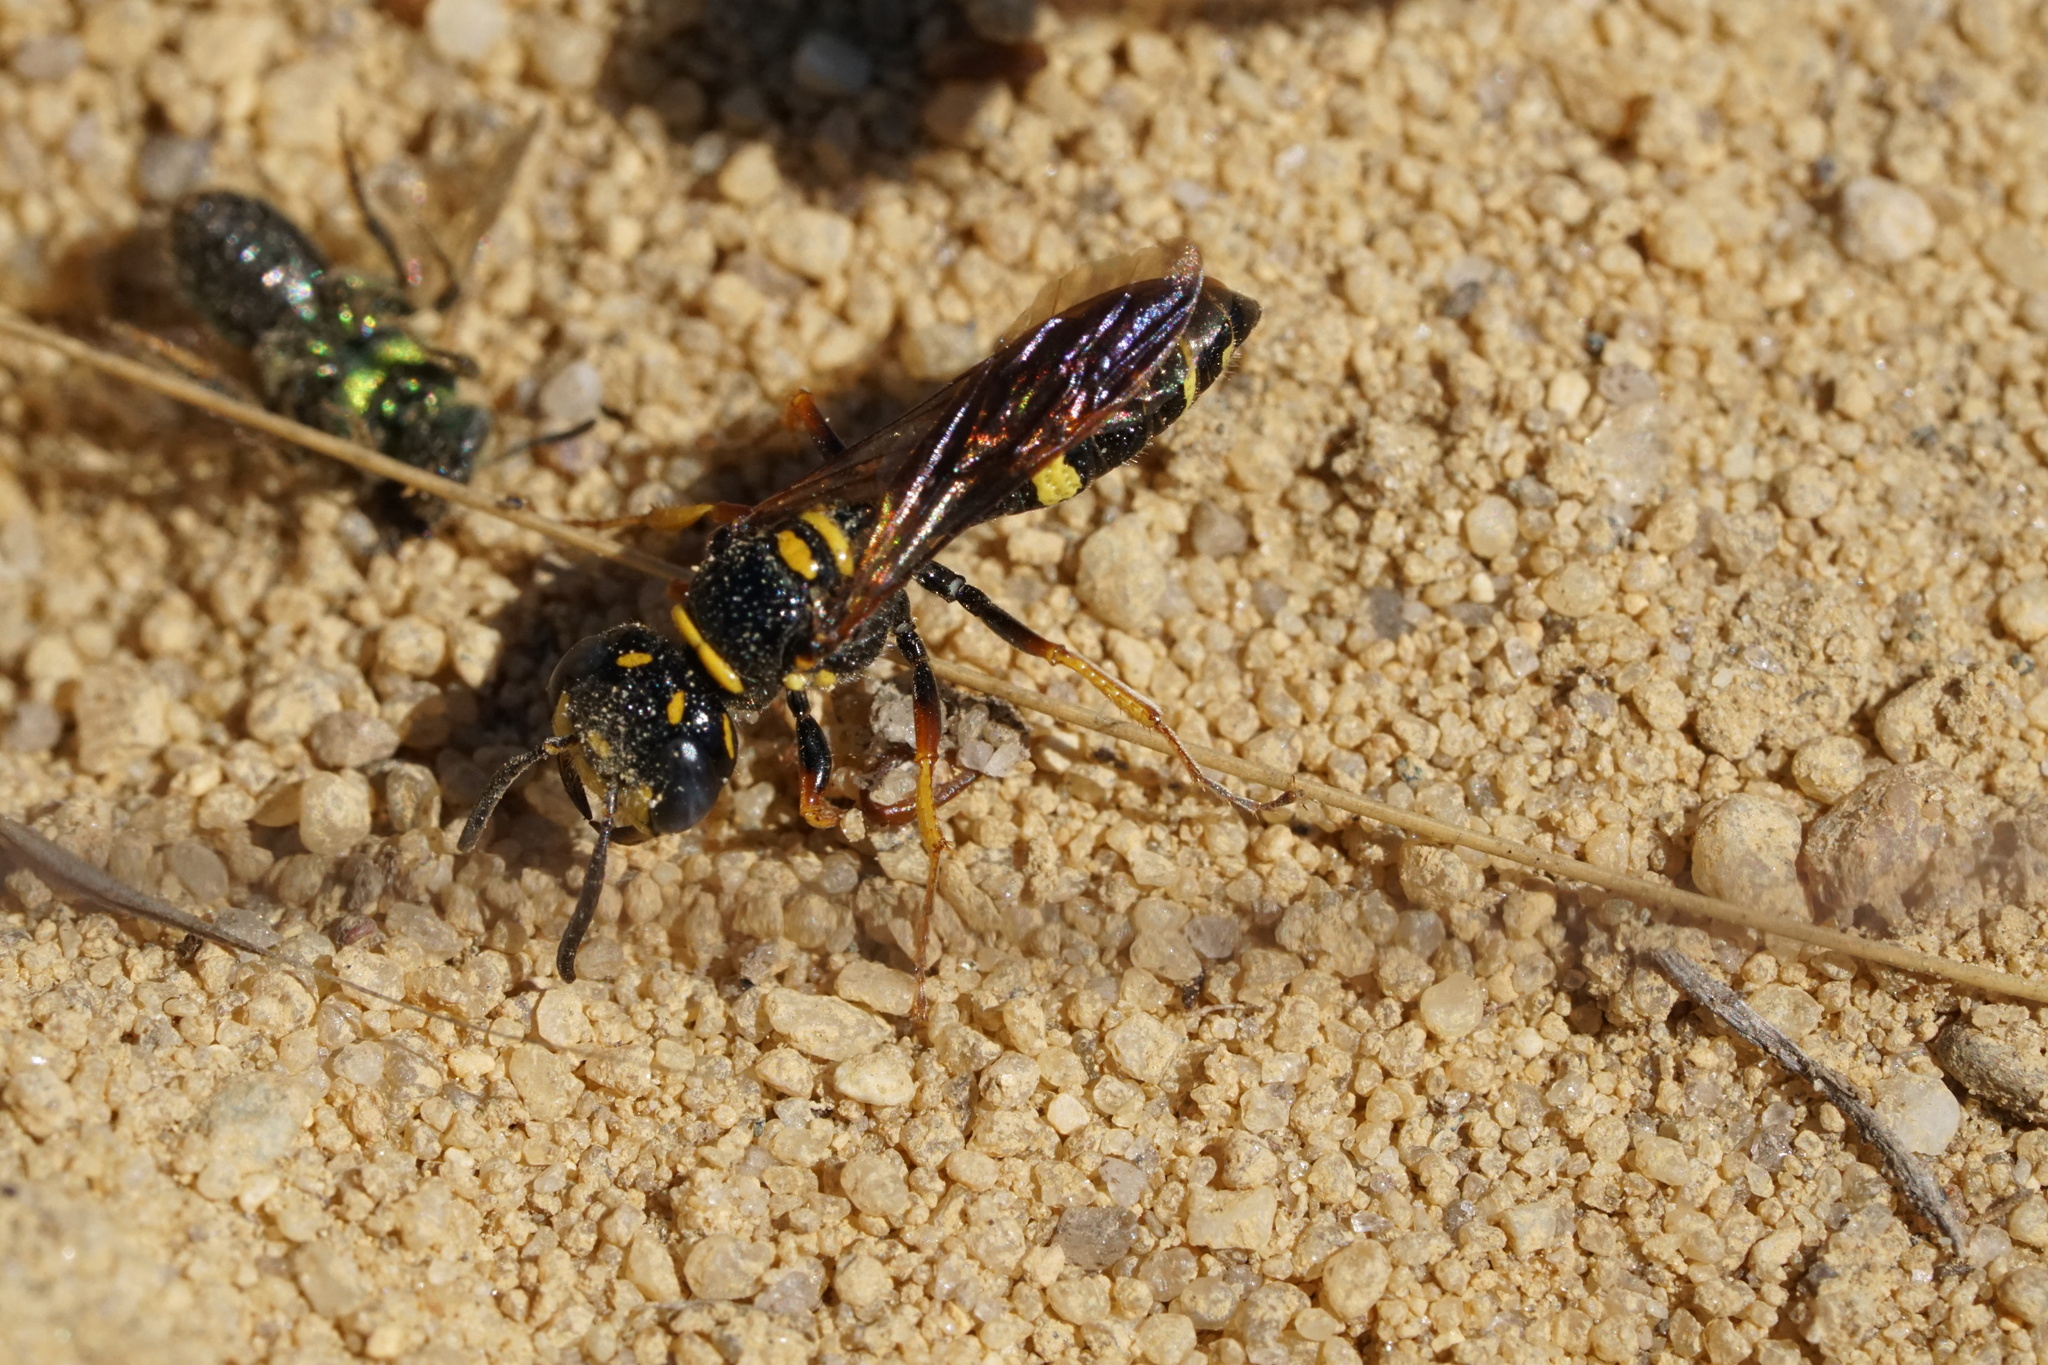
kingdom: Animalia
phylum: Arthropoda
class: Insecta
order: Hymenoptera
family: Crabronidae
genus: Philanthus
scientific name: Philanthus gibbosus
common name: Humped beewolf
